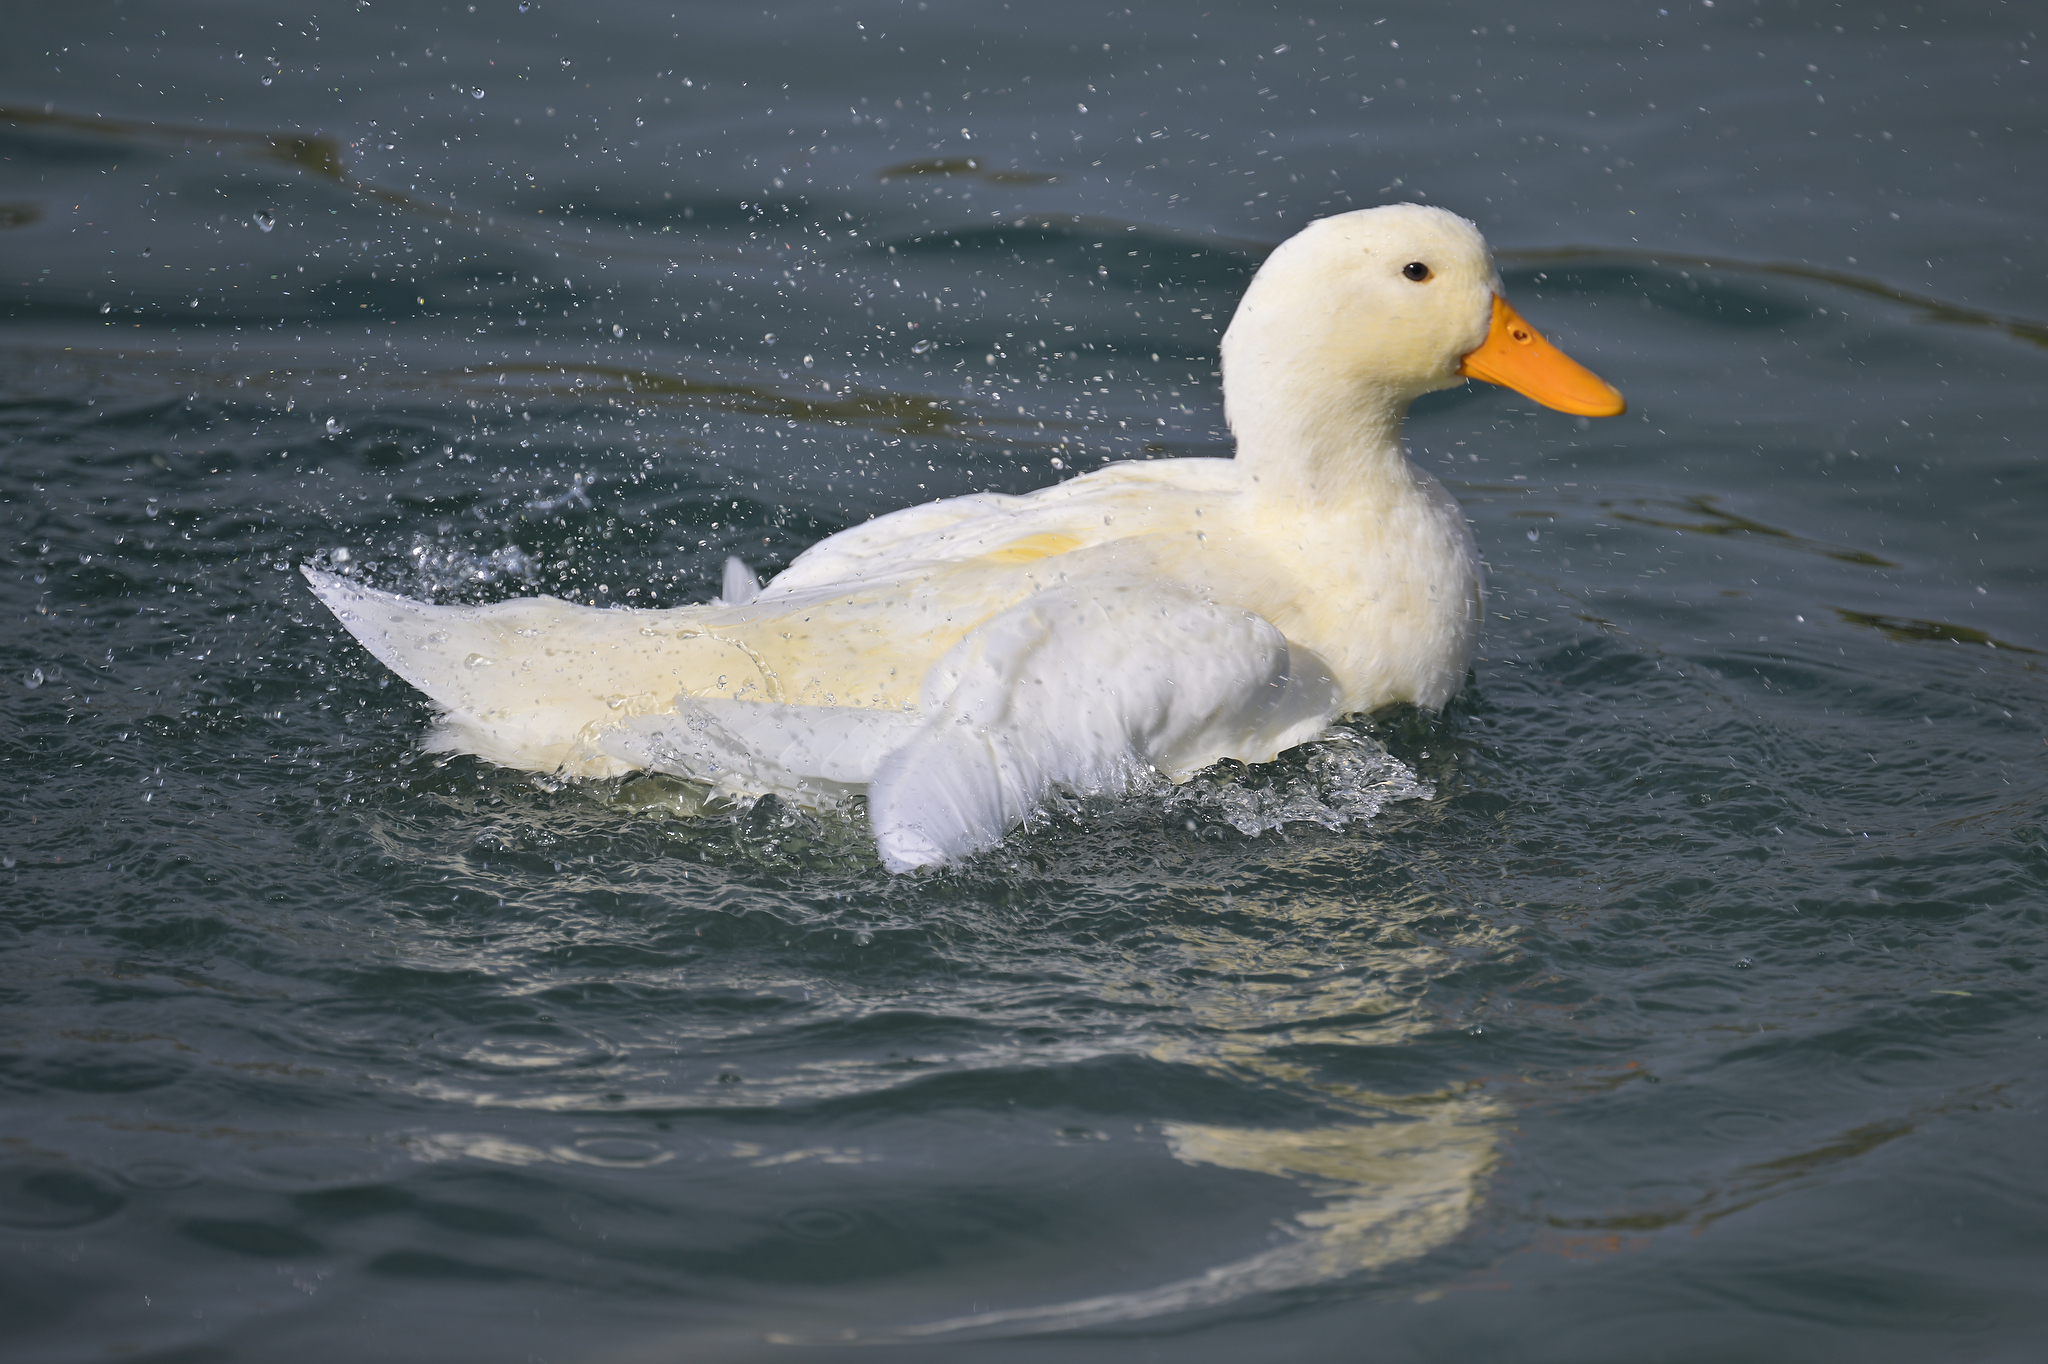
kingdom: Animalia
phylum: Chordata
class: Aves
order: Anseriformes
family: Anatidae
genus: Anas
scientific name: Anas platyrhynchos
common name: Mallard
